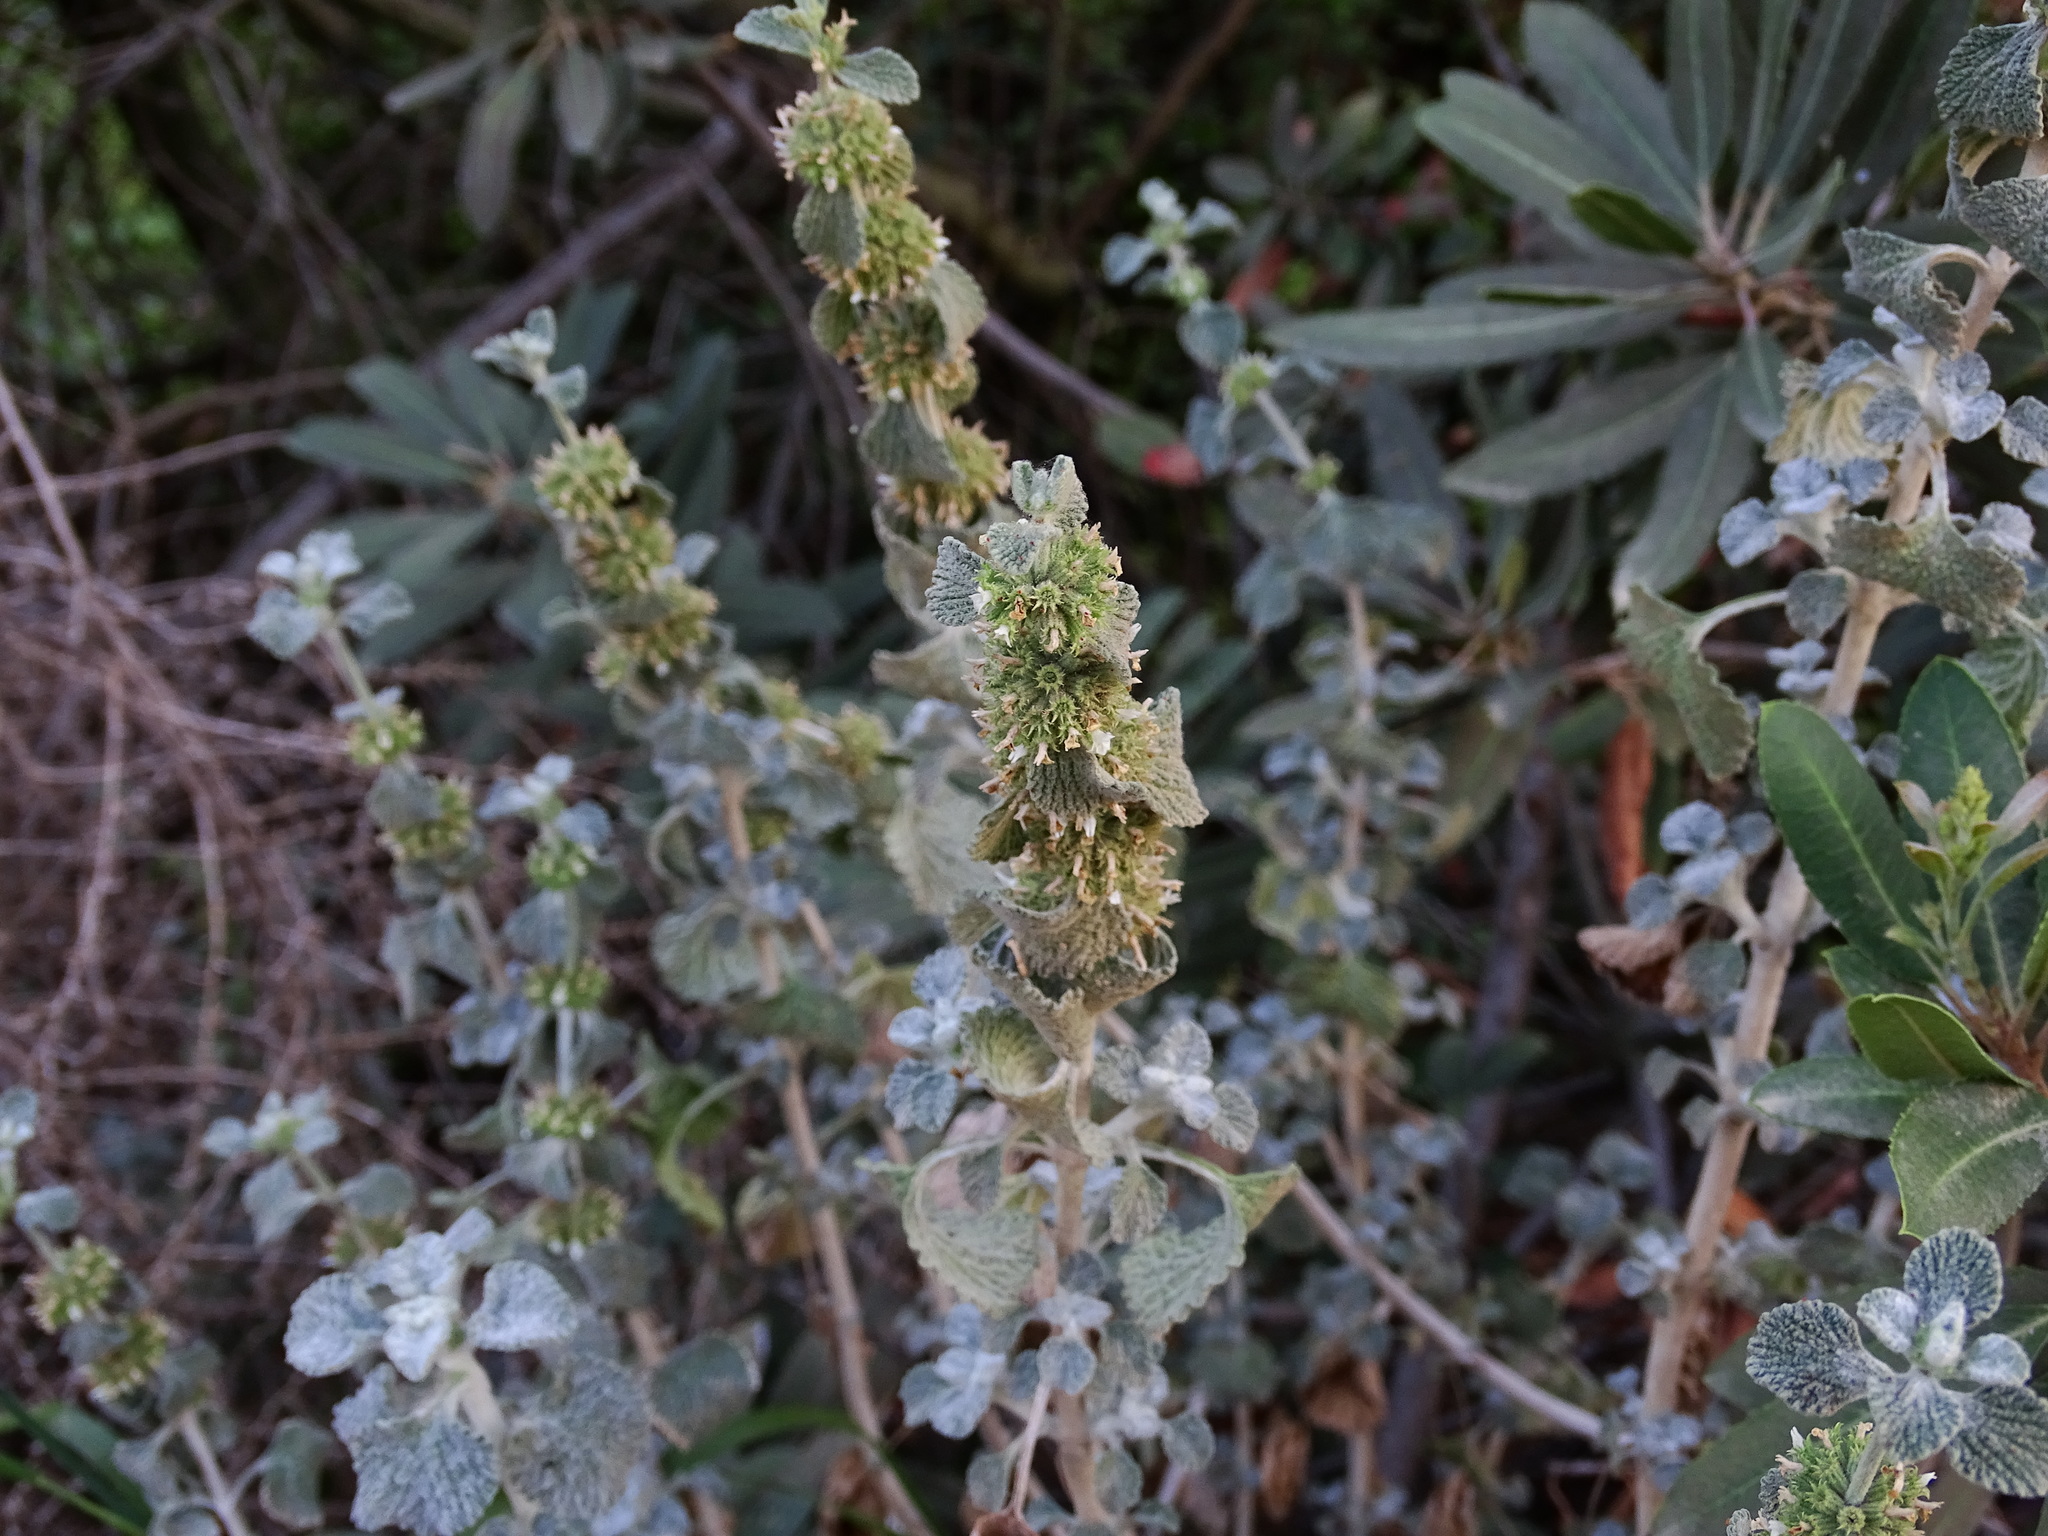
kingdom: Plantae
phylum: Tracheophyta
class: Magnoliopsida
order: Lamiales
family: Lamiaceae
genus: Marrubium
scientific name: Marrubium vulgare
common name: Horehound
